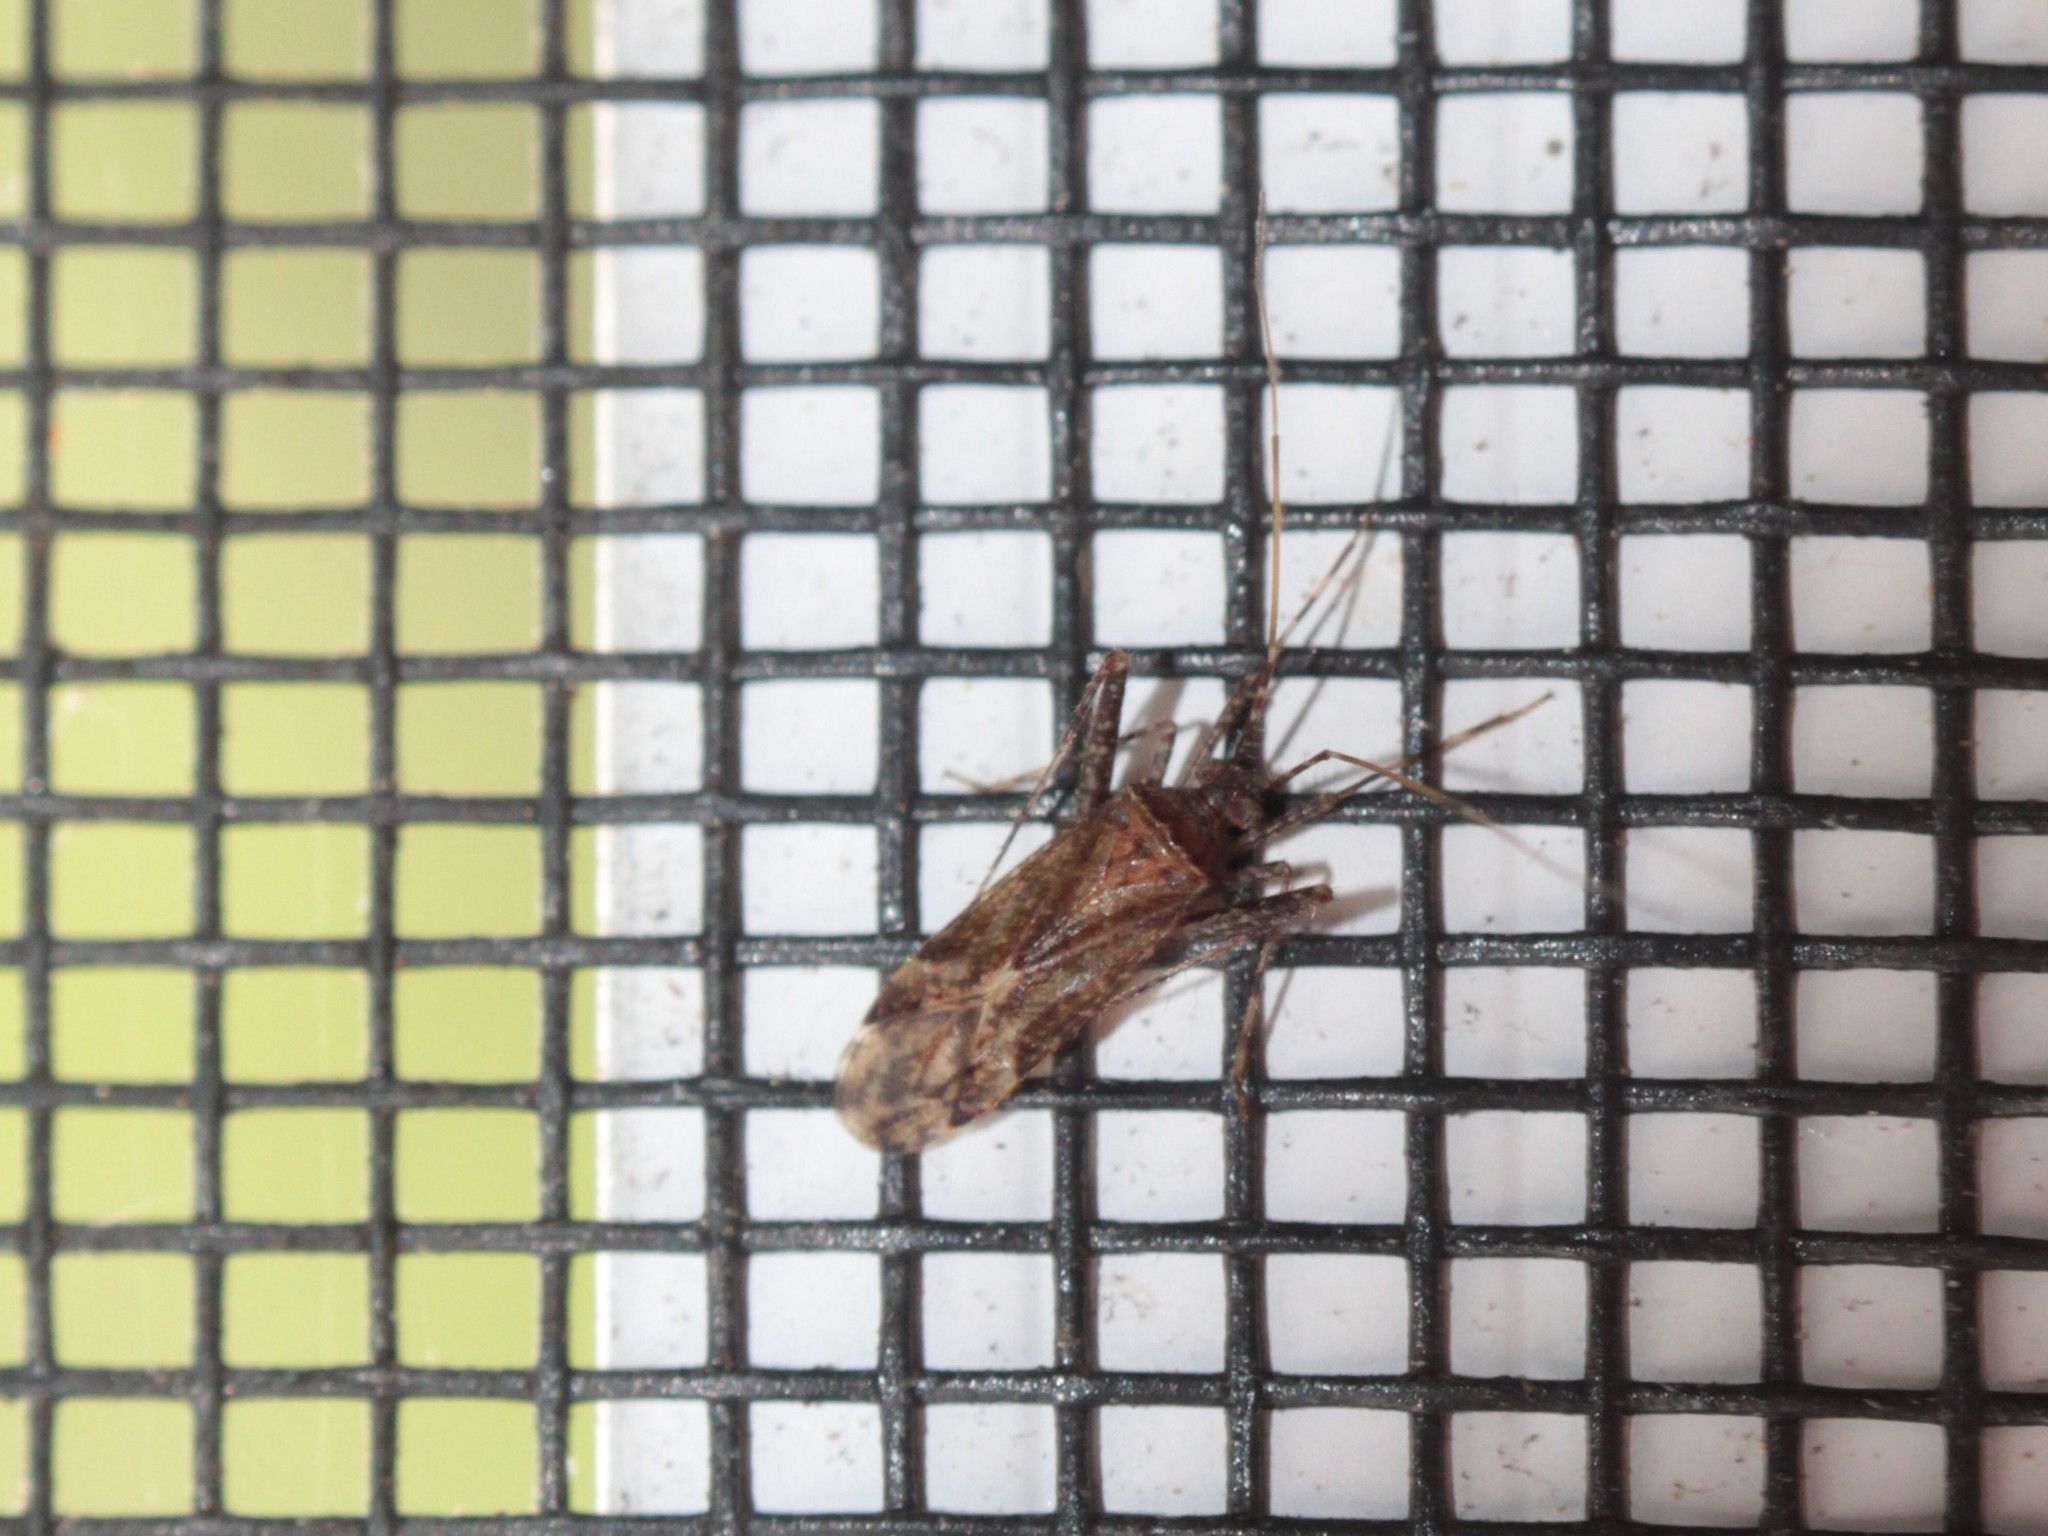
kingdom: Animalia
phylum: Arthropoda
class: Insecta
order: Hemiptera
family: Miridae
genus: Adelphocoris
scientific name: Adelphocoris lineolatus
